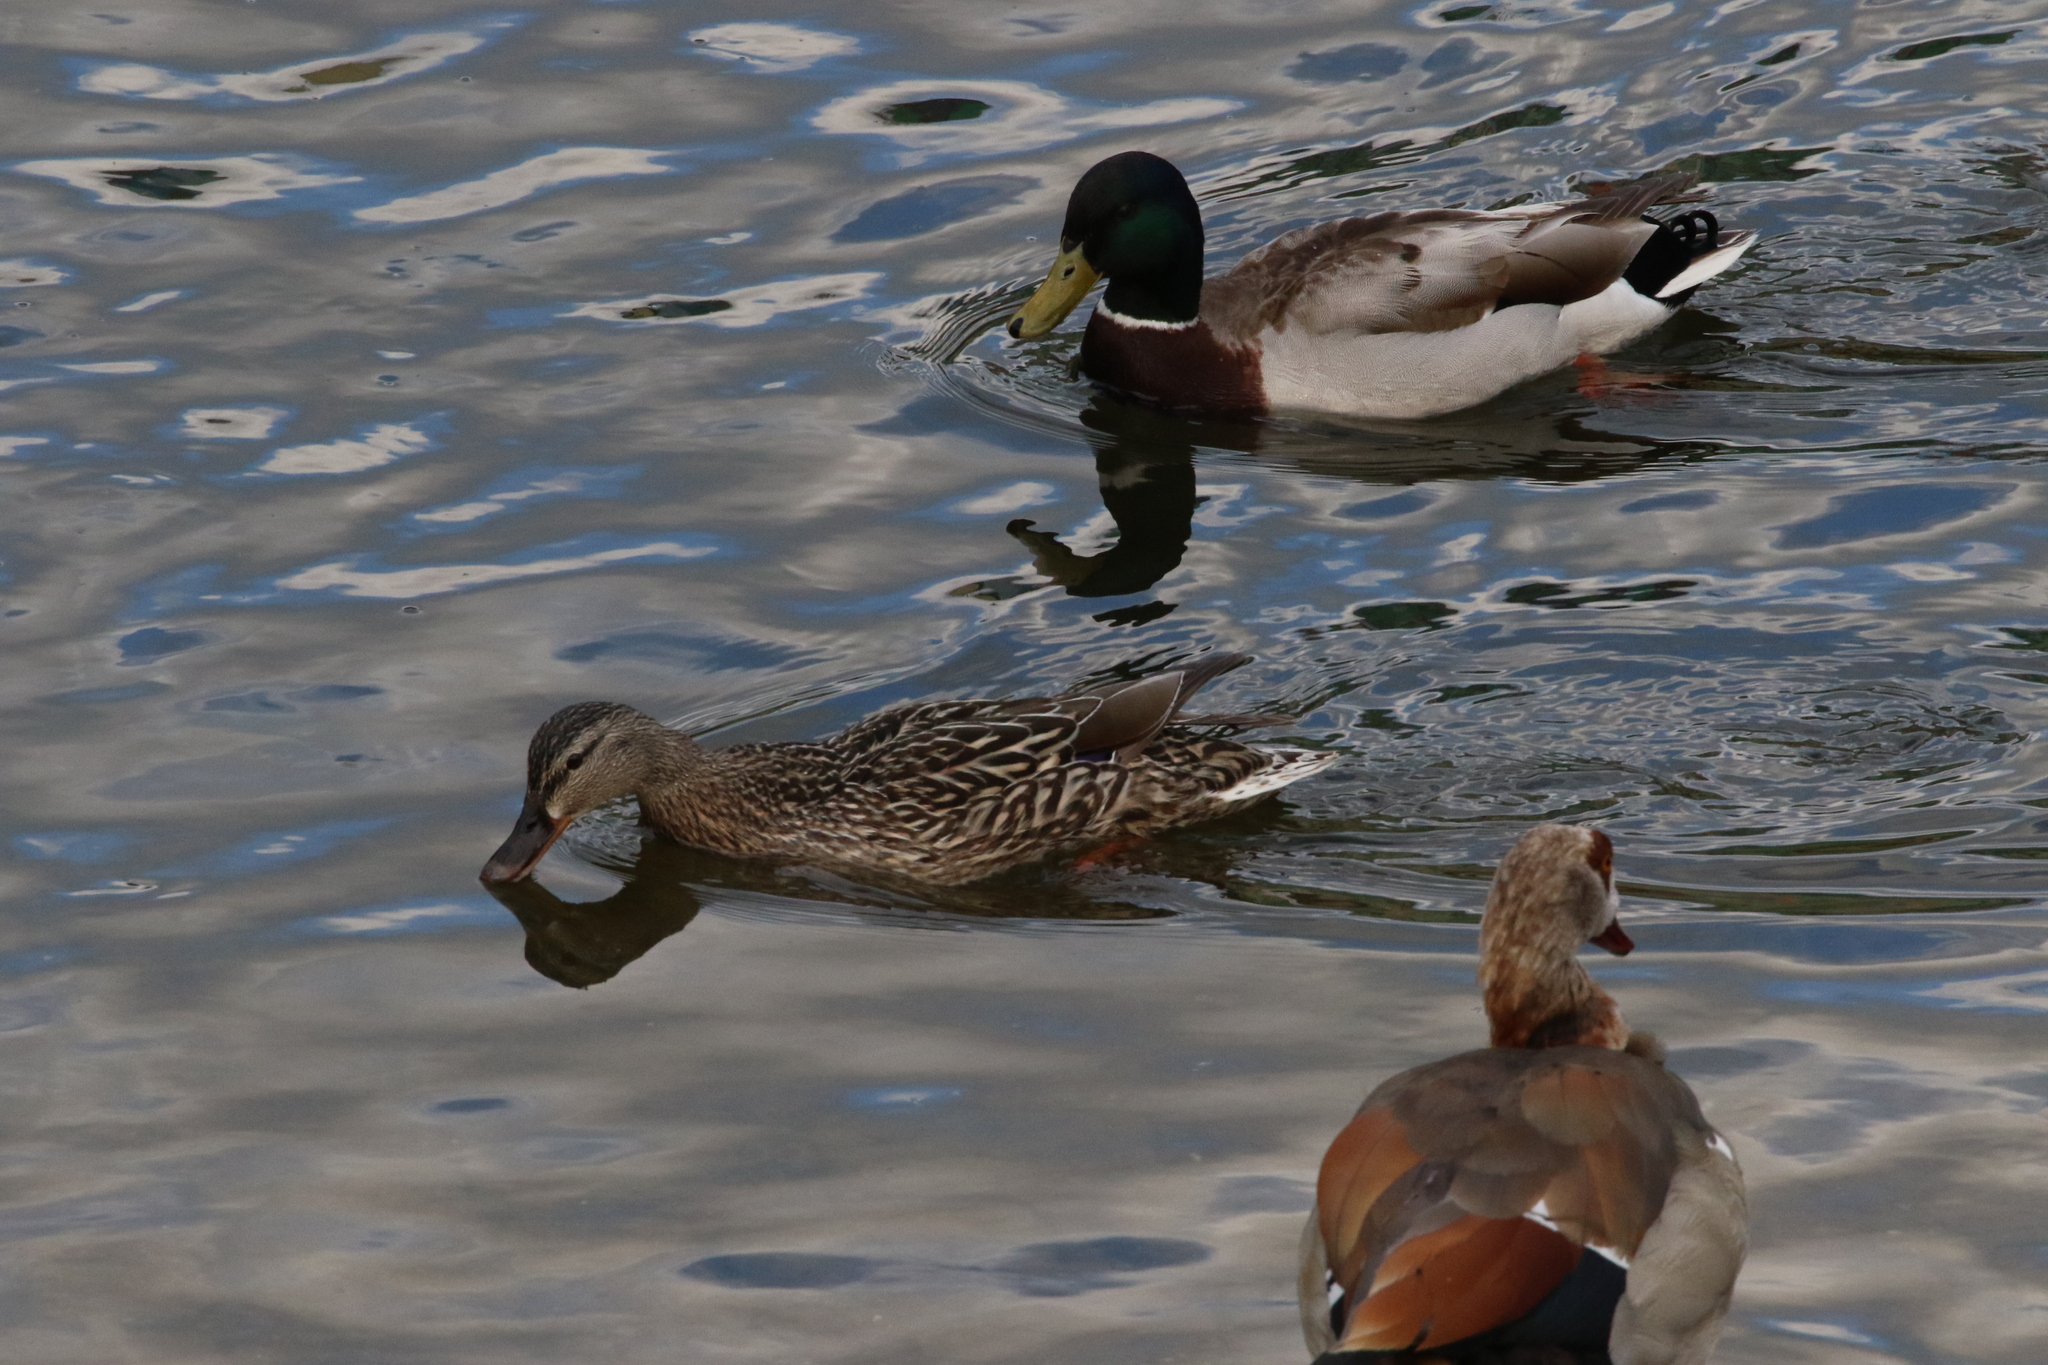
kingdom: Animalia
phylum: Chordata
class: Aves
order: Anseriformes
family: Anatidae
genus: Anas
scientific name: Anas platyrhynchos
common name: Mallard
